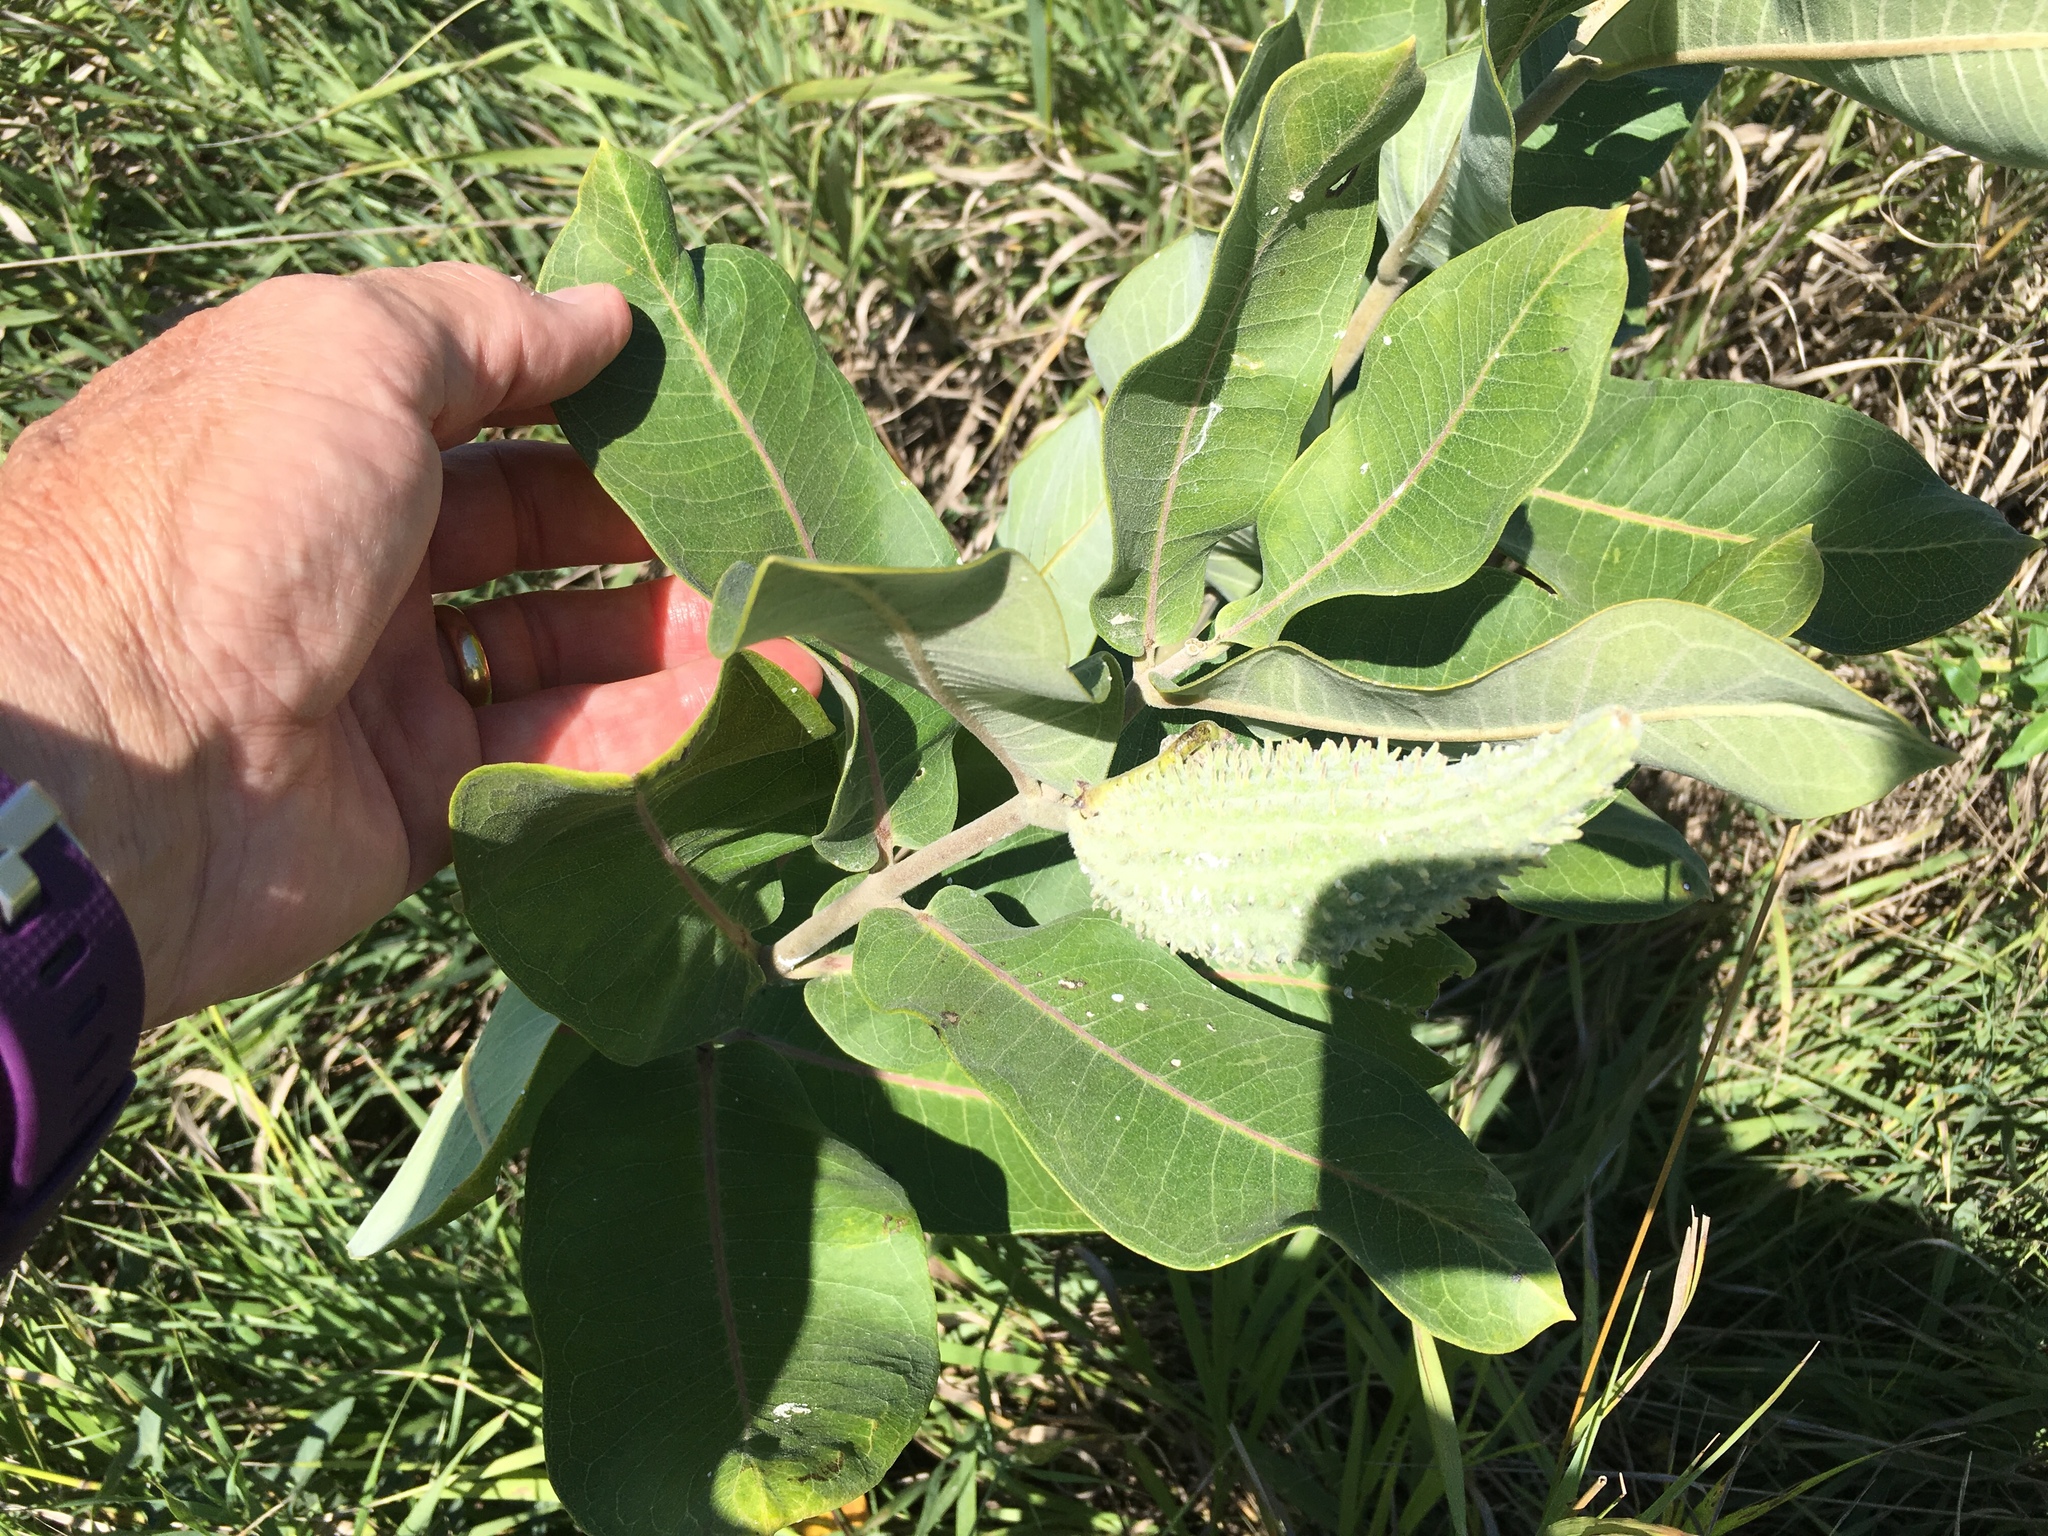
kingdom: Plantae
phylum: Tracheophyta
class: Magnoliopsida
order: Gentianales
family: Apocynaceae
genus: Asclepias
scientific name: Asclepias syriaca
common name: Common milkweed
